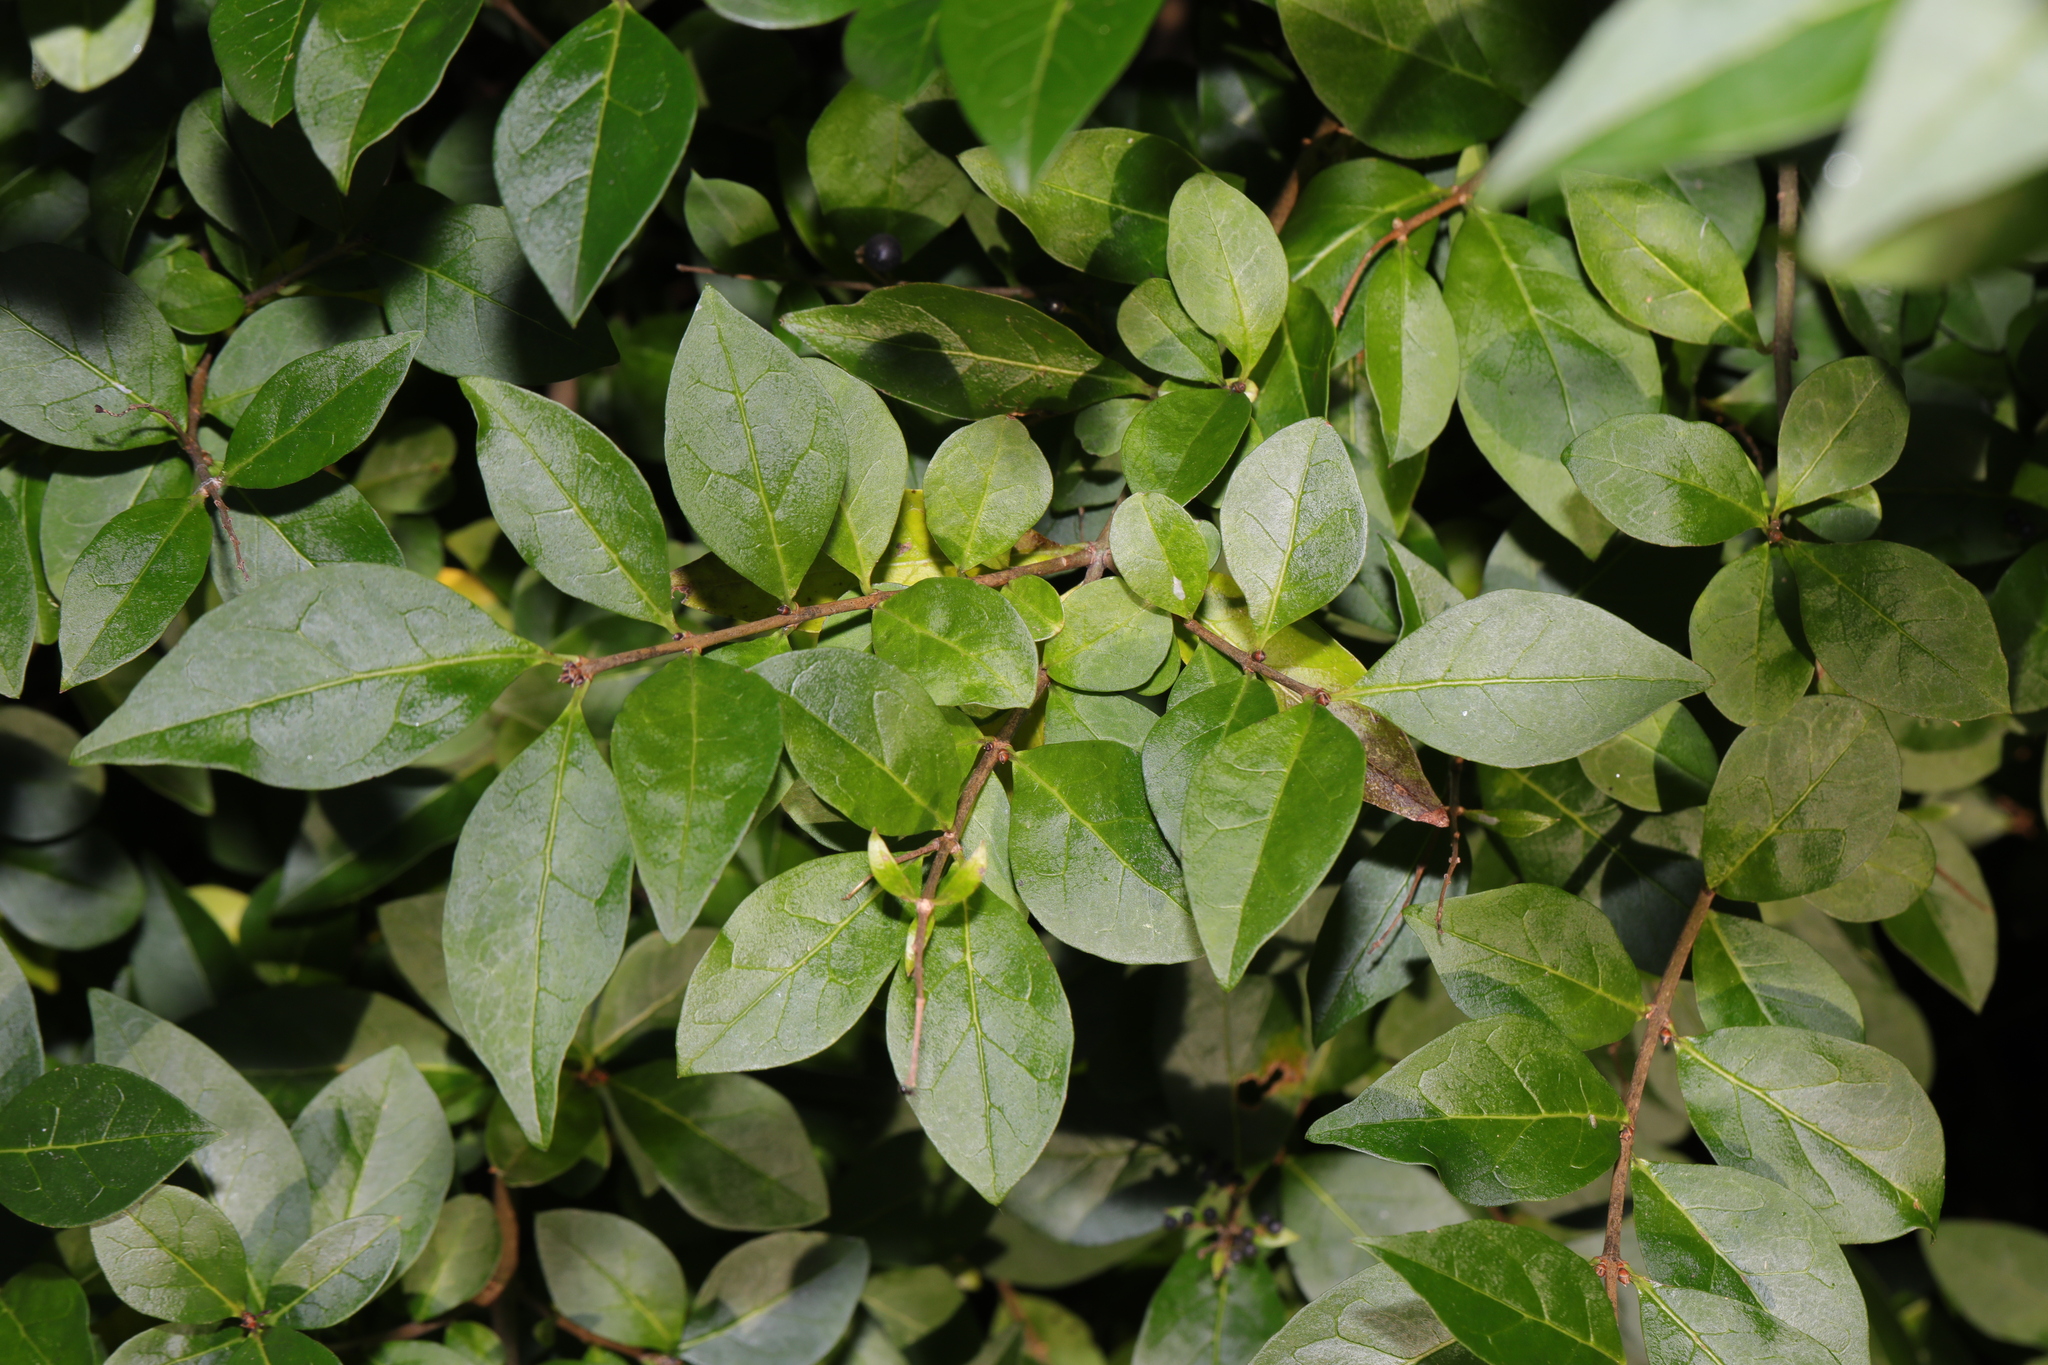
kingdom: Plantae
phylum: Tracheophyta
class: Magnoliopsida
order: Lamiales
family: Oleaceae
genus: Ligustrum
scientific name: Ligustrum ovalifolium
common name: California privet
